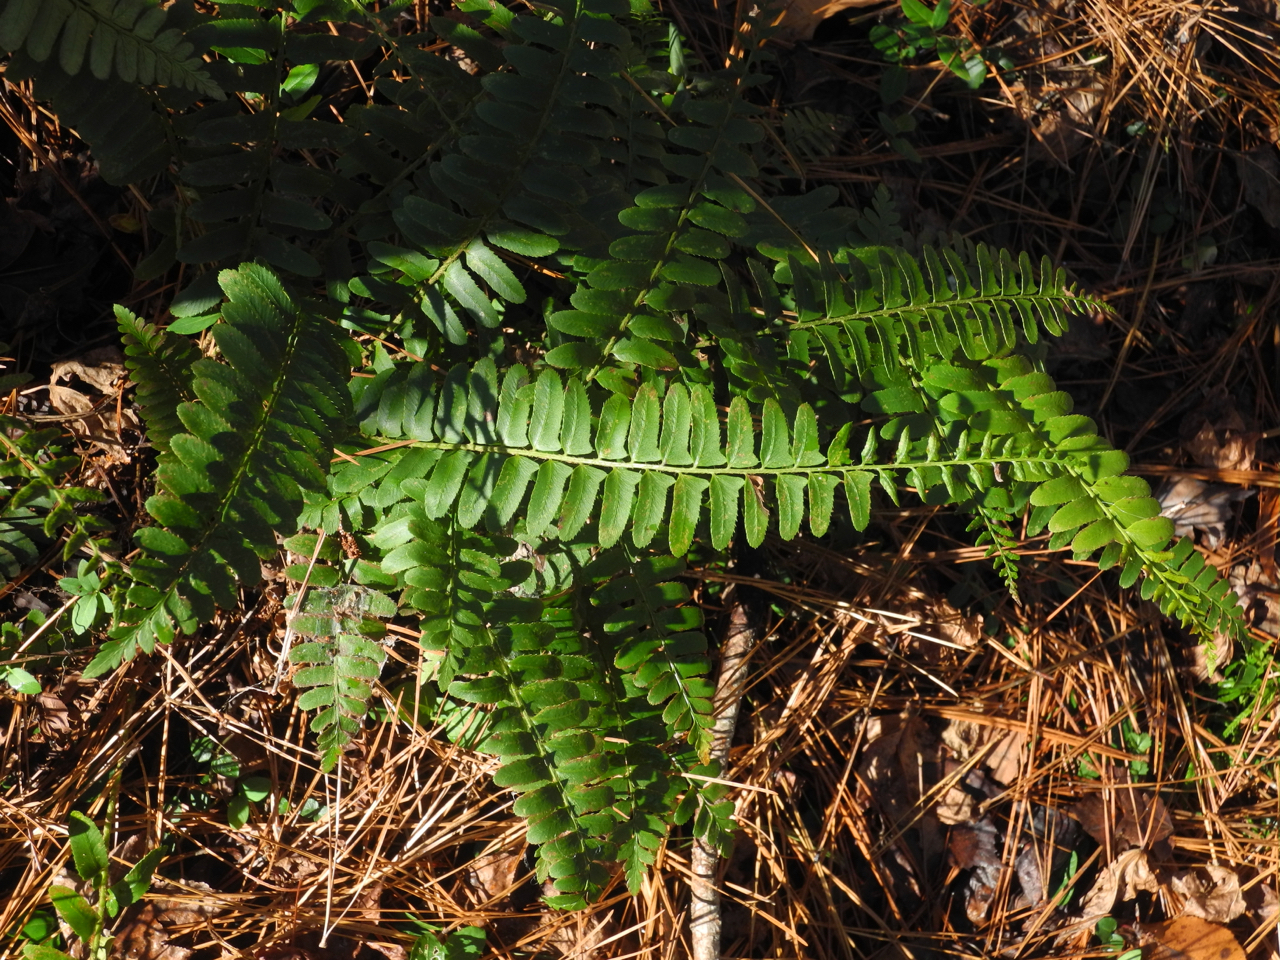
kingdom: Plantae
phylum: Tracheophyta
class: Polypodiopsida
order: Polypodiales
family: Dryopteridaceae
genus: Polystichum
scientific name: Polystichum acrostichoides
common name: Christmas fern
